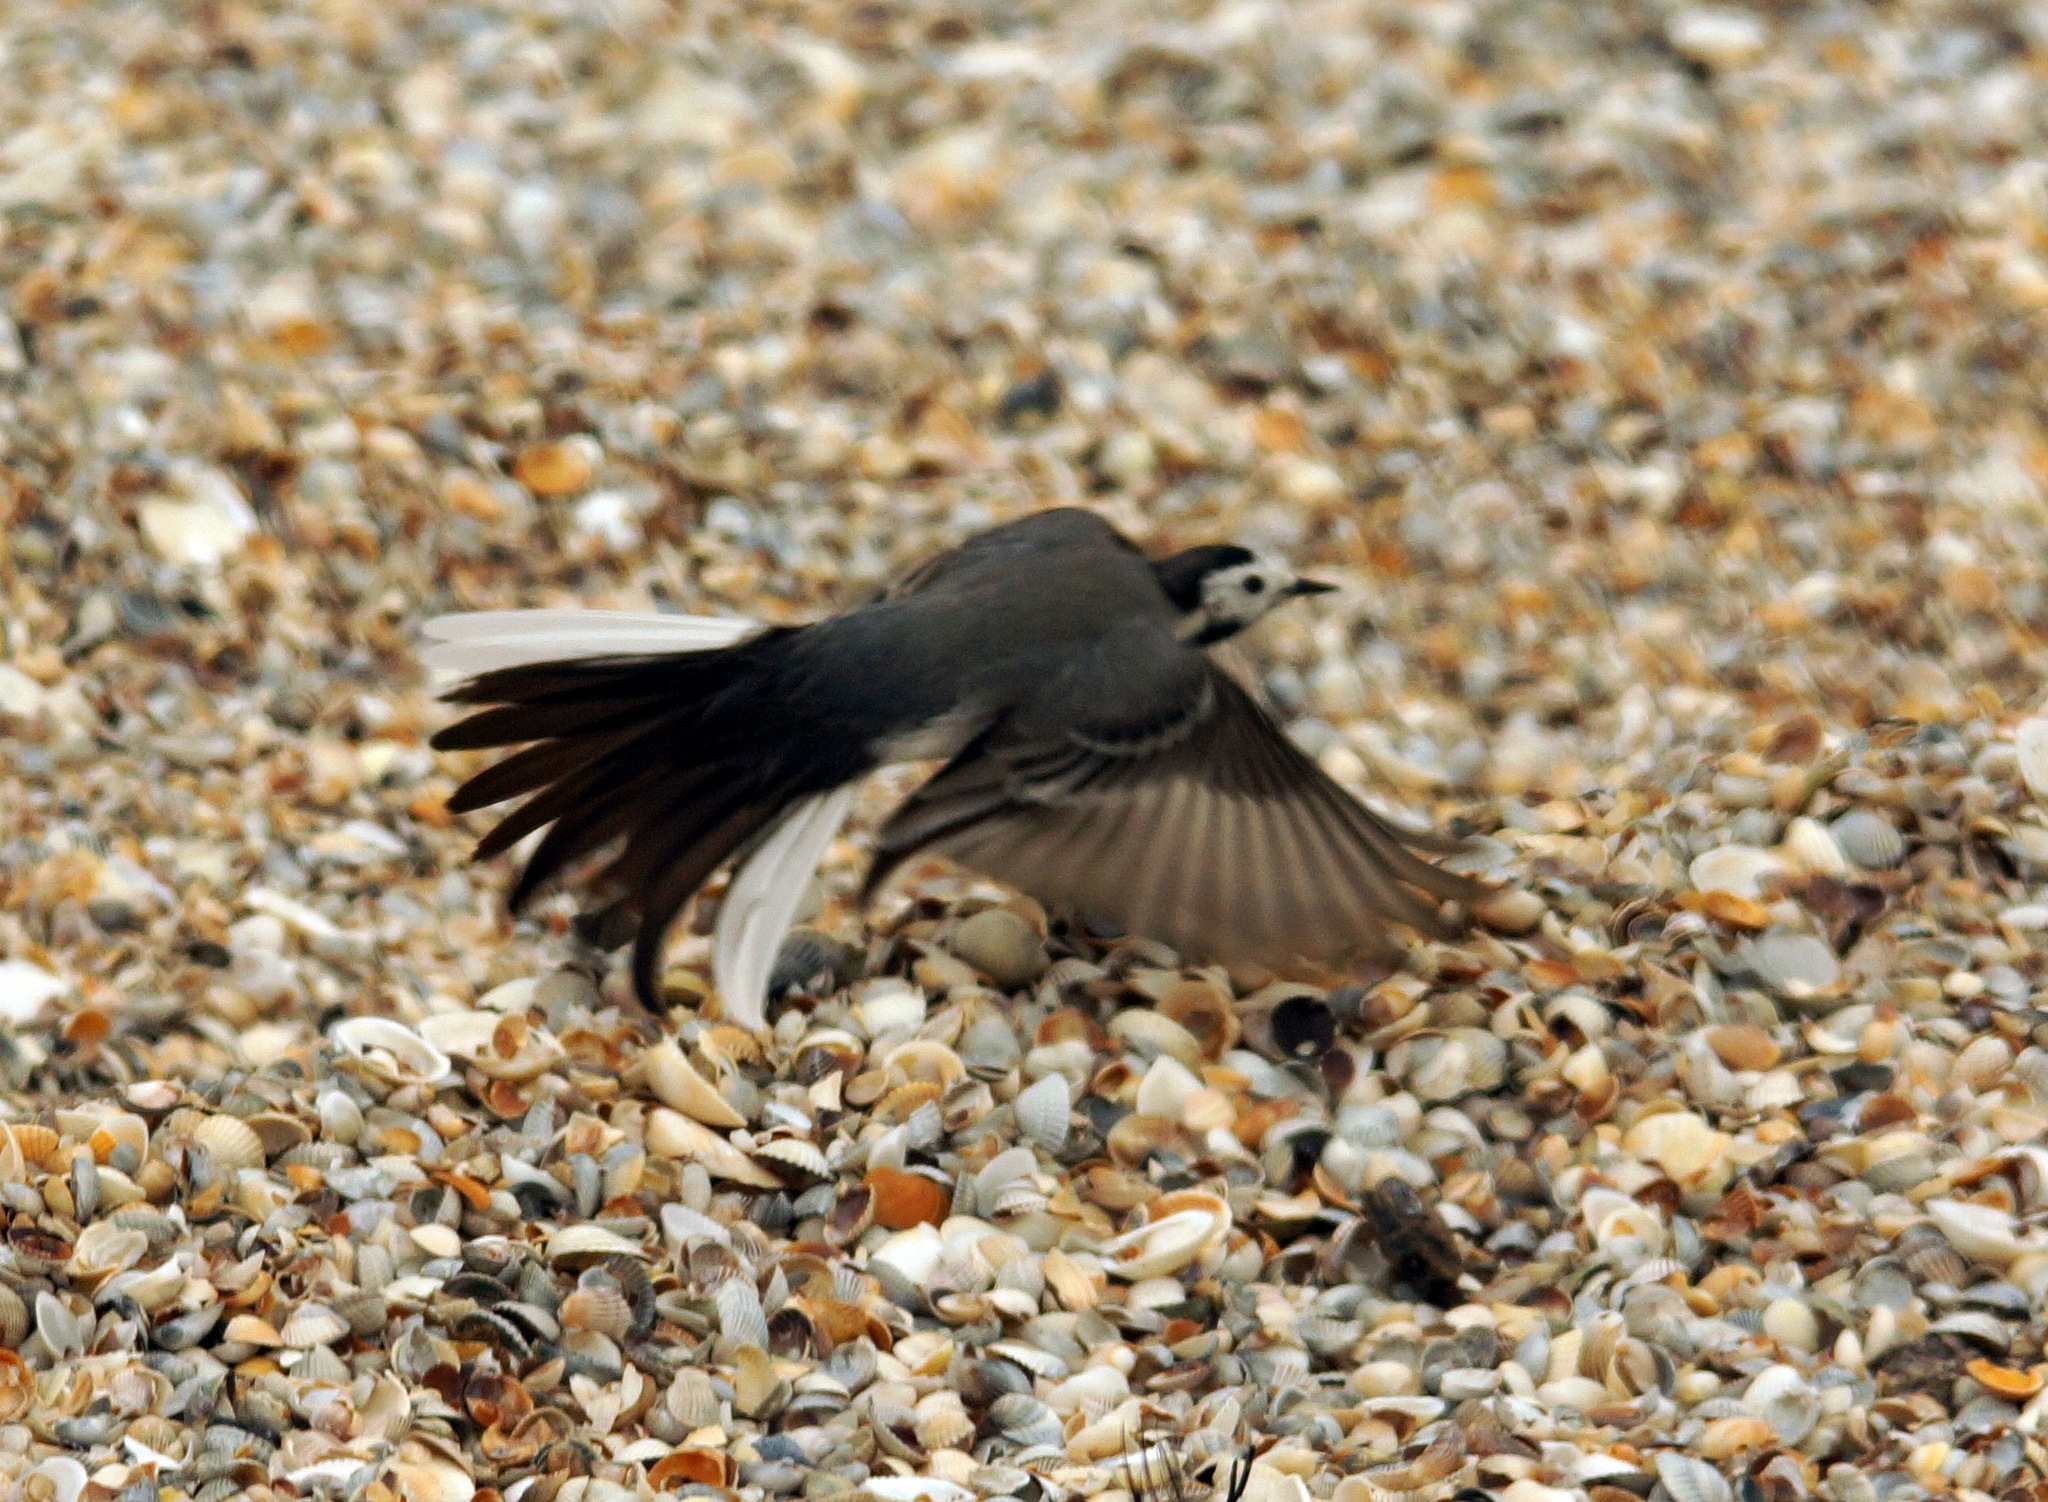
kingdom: Animalia
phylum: Chordata
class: Aves
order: Passeriformes
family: Motacillidae
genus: Motacilla
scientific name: Motacilla alba
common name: White wagtail
